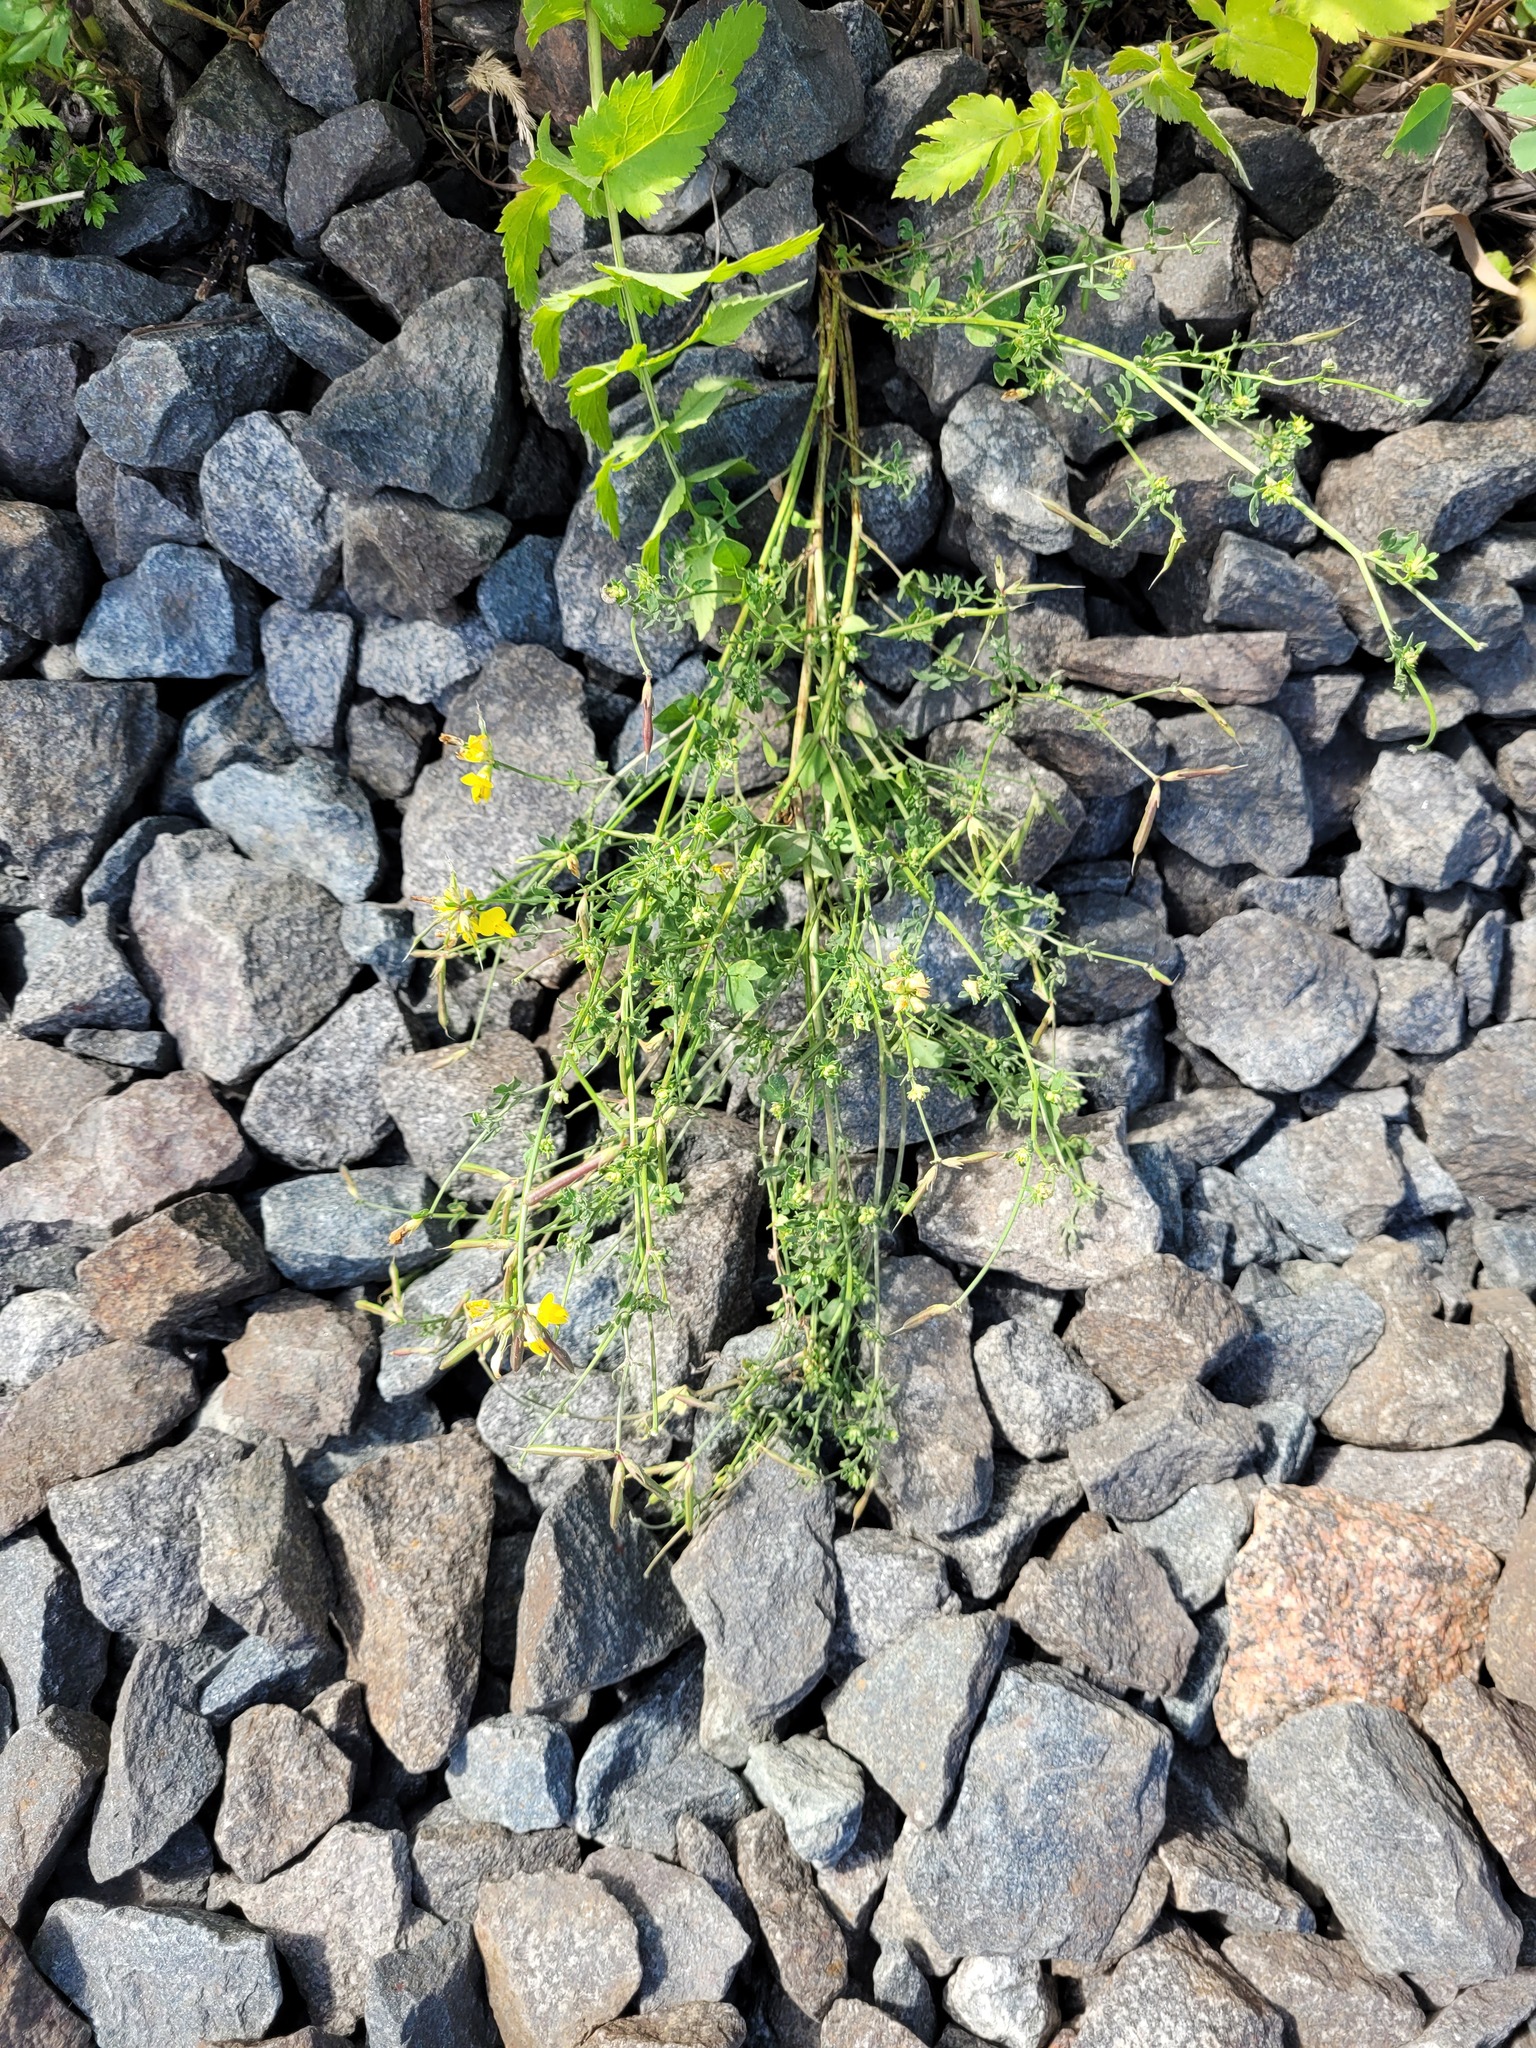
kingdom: Plantae
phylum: Tracheophyta
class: Magnoliopsida
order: Fabales
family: Fabaceae
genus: Lotus
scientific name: Lotus corniculatus
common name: Common bird's-foot-trefoil
